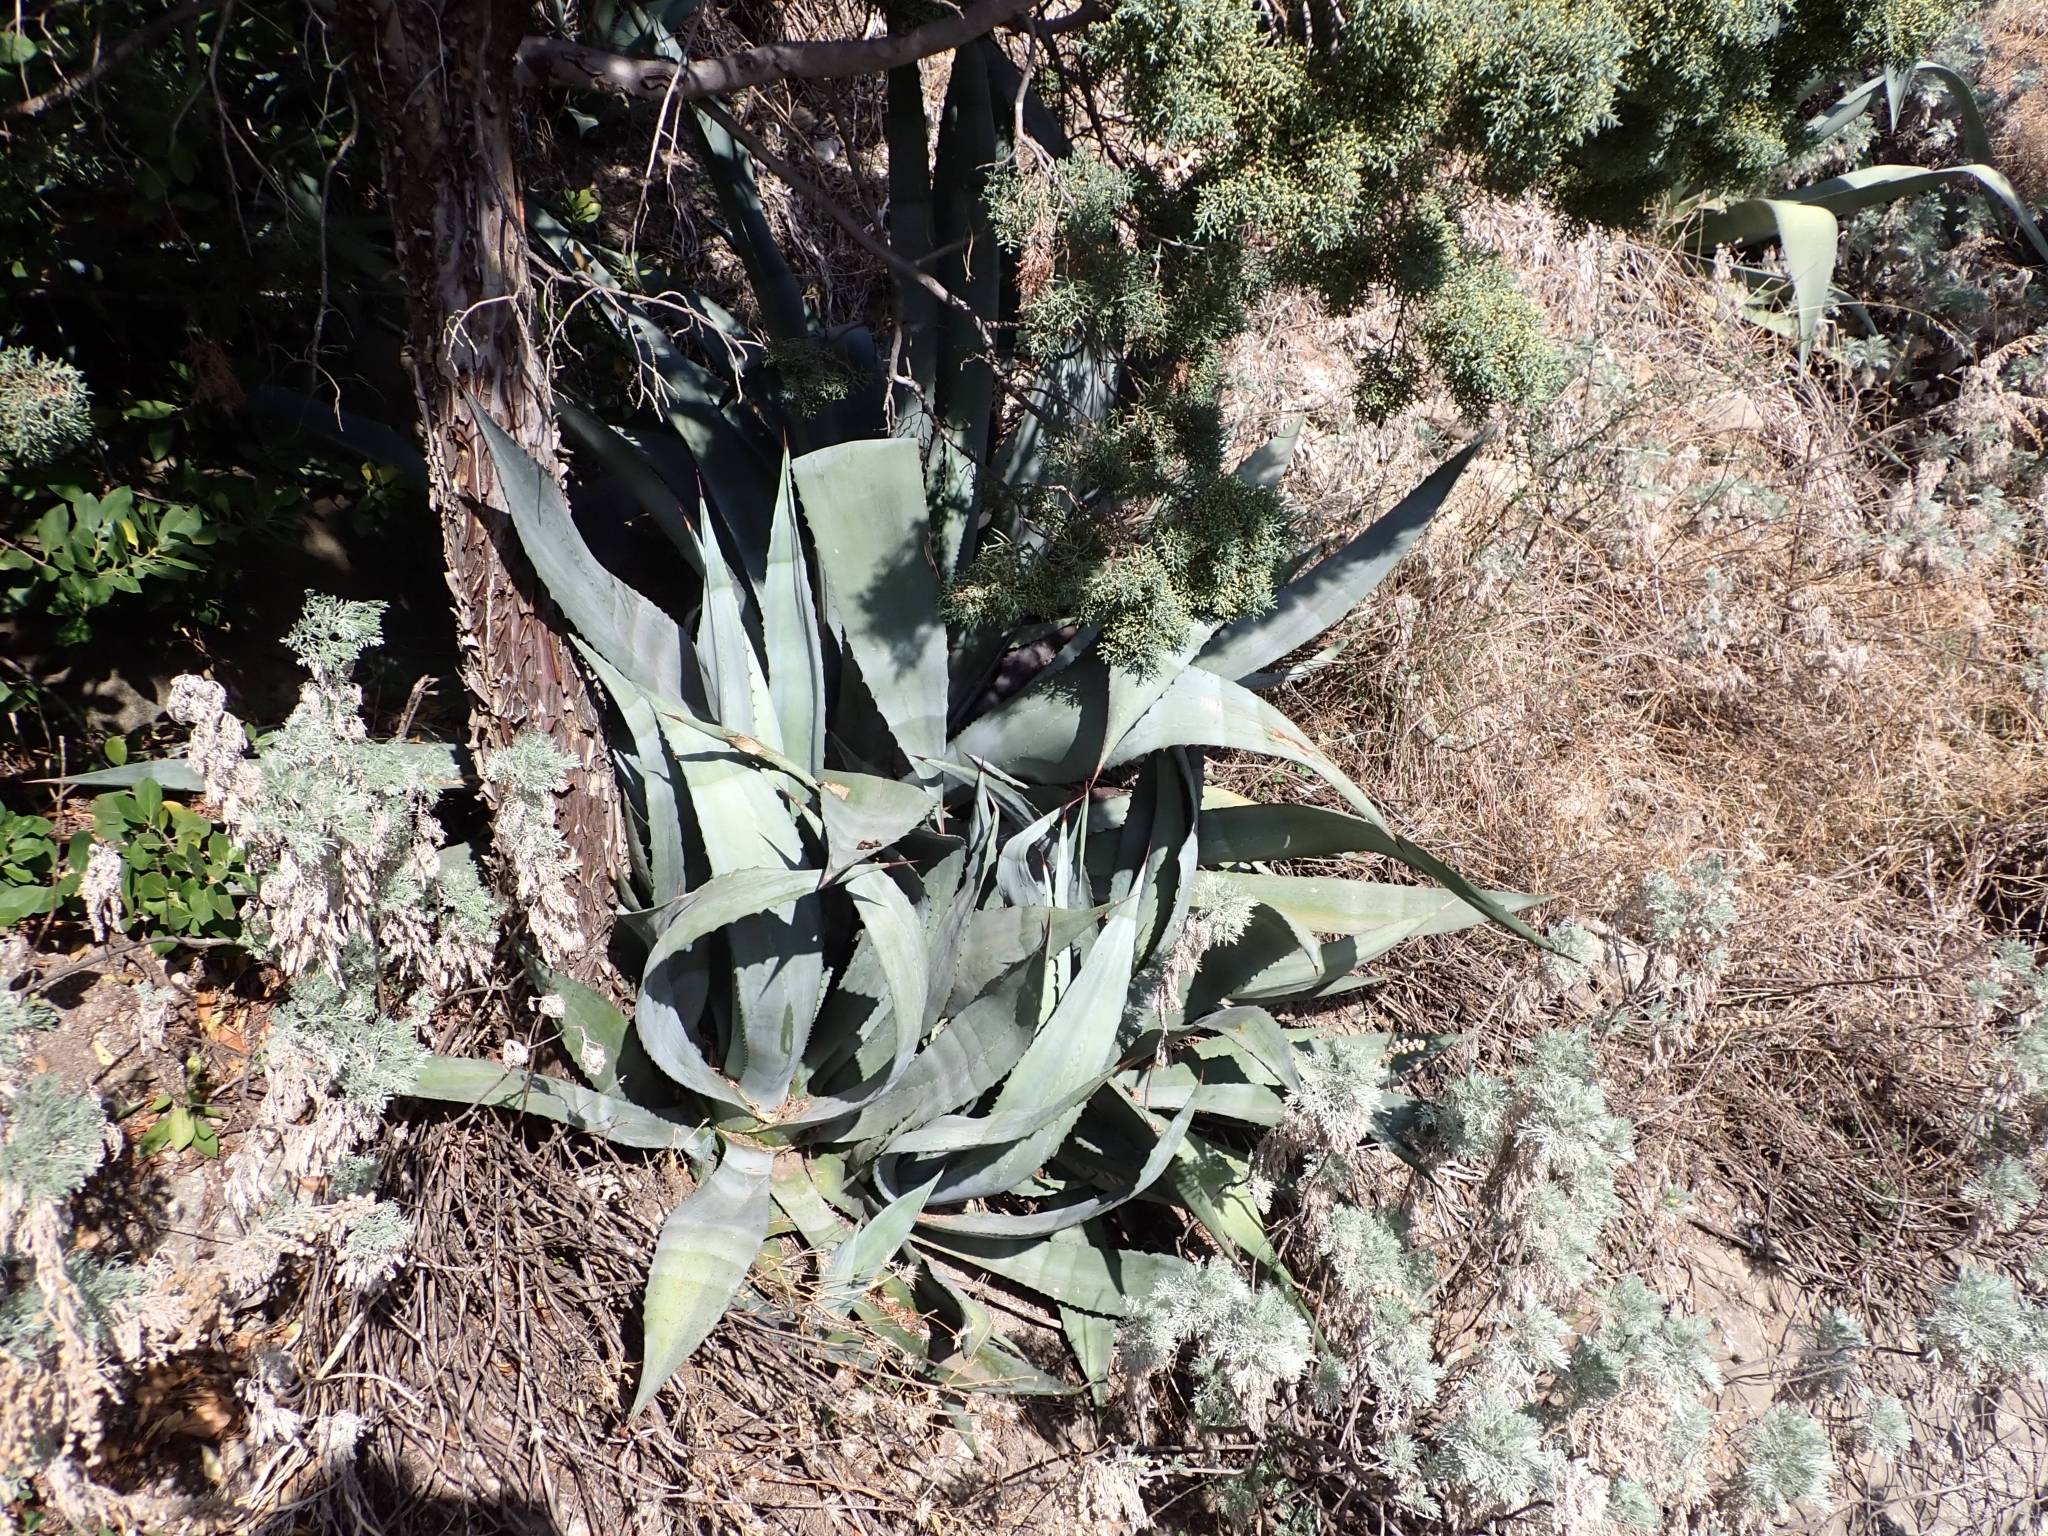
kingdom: Plantae
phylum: Tracheophyta
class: Liliopsida
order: Asparagales
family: Asparagaceae
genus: Agave
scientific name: Agave americana
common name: Centuryplant
